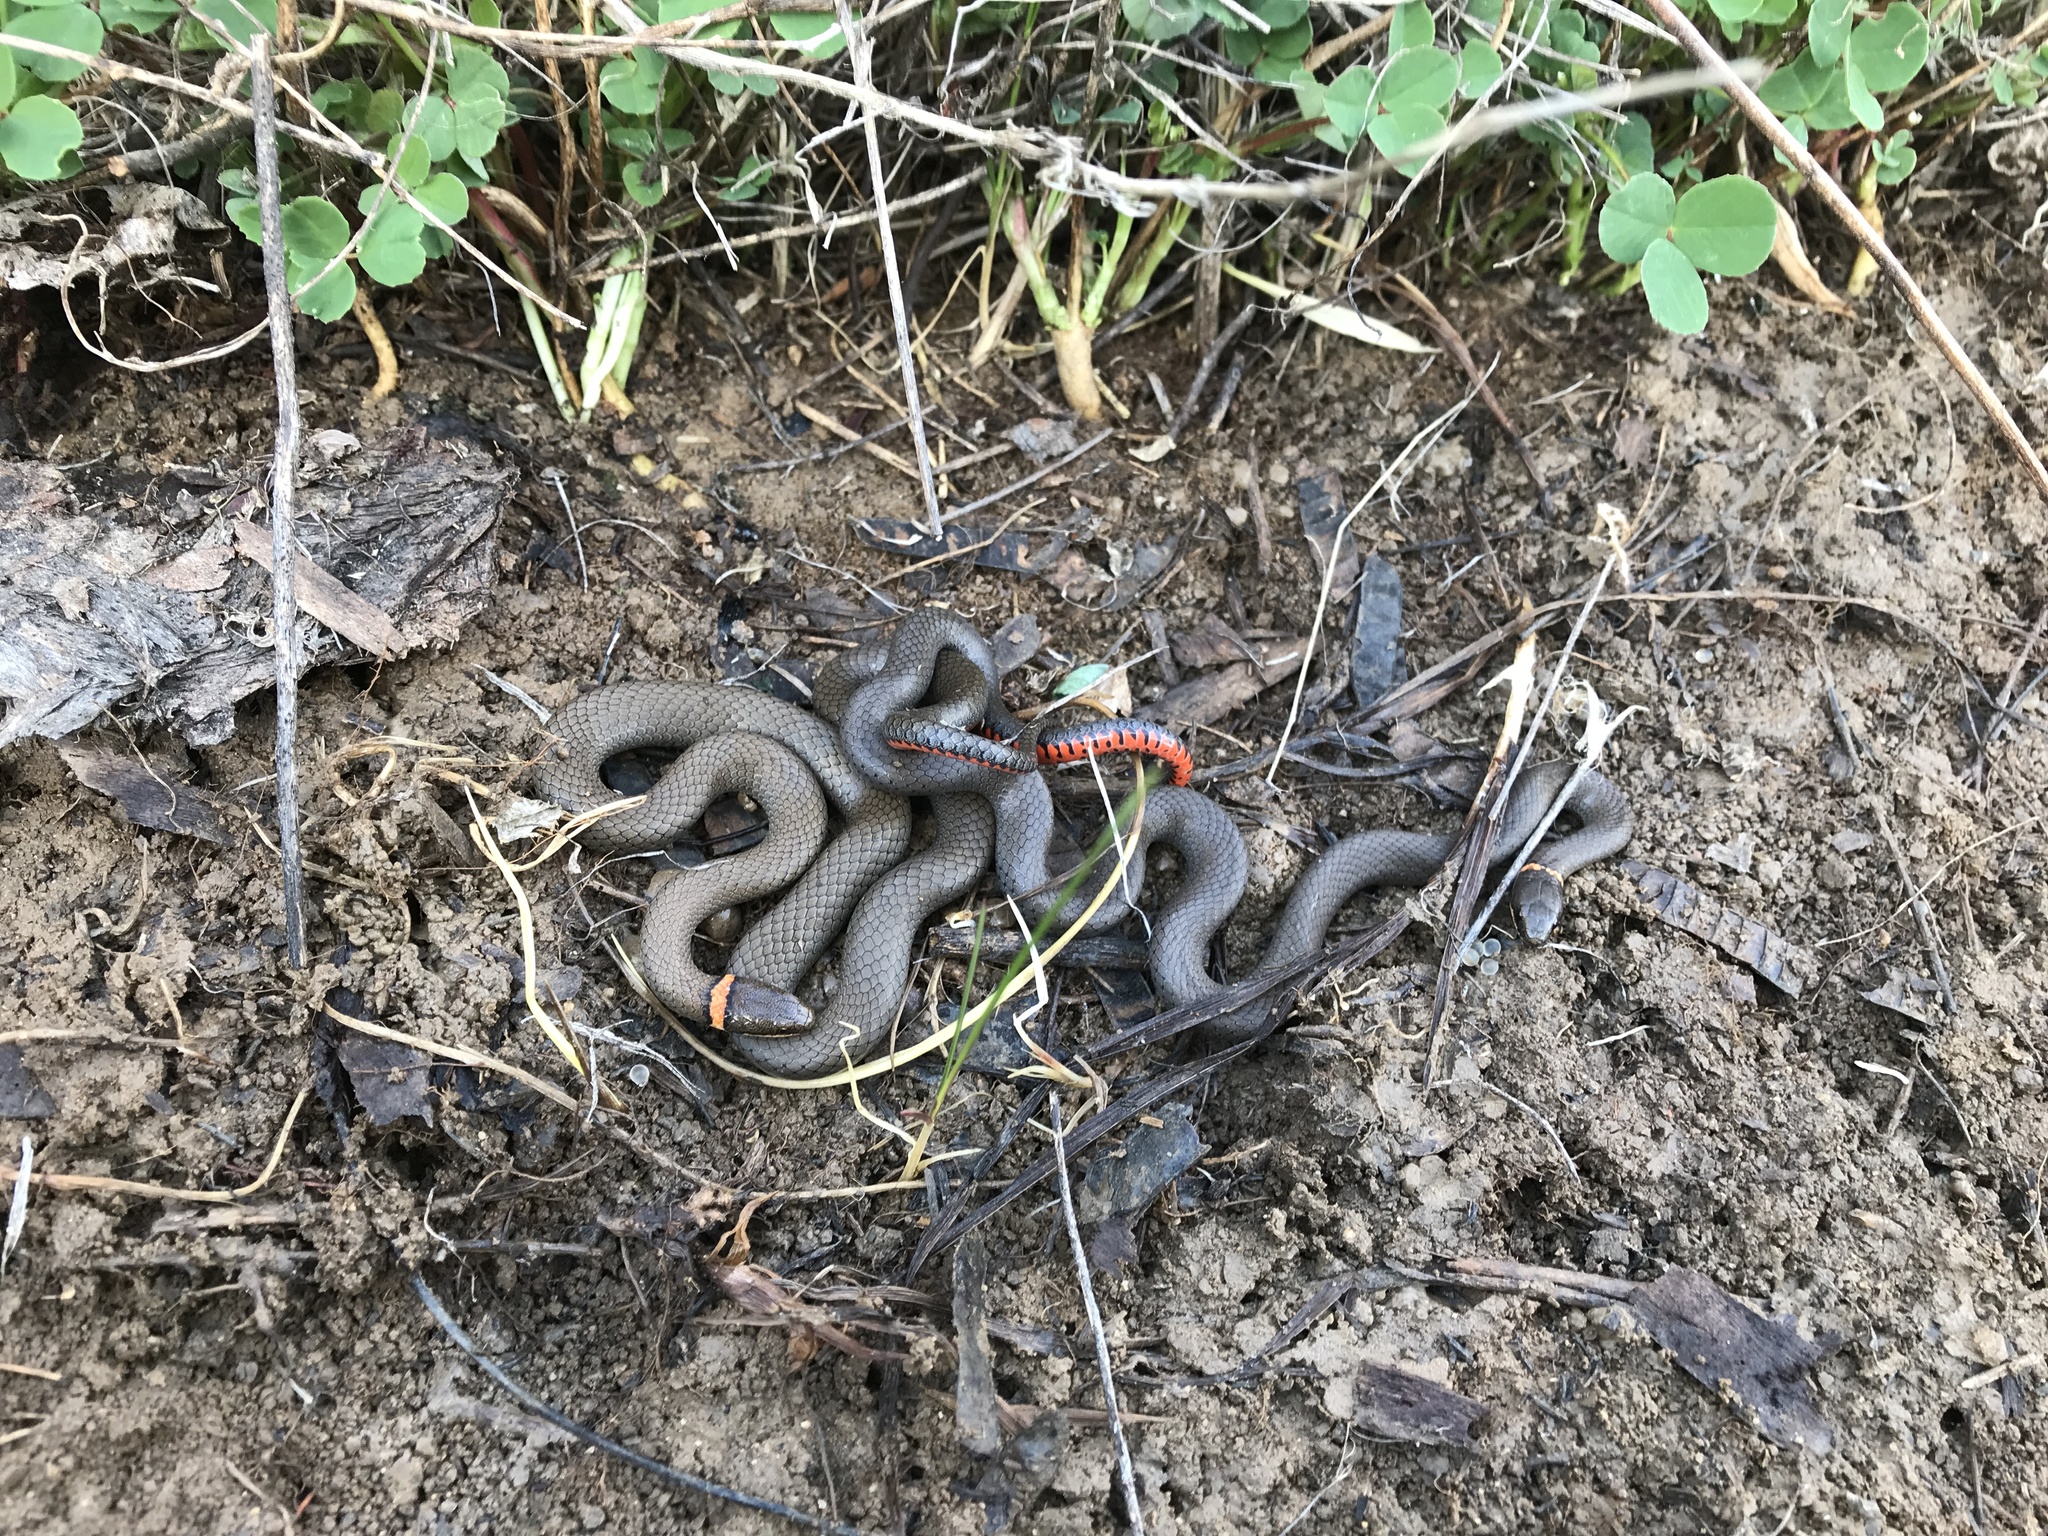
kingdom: Animalia
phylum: Chordata
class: Squamata
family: Colubridae
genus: Diadophis
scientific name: Diadophis punctatus
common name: Ringneck snake
